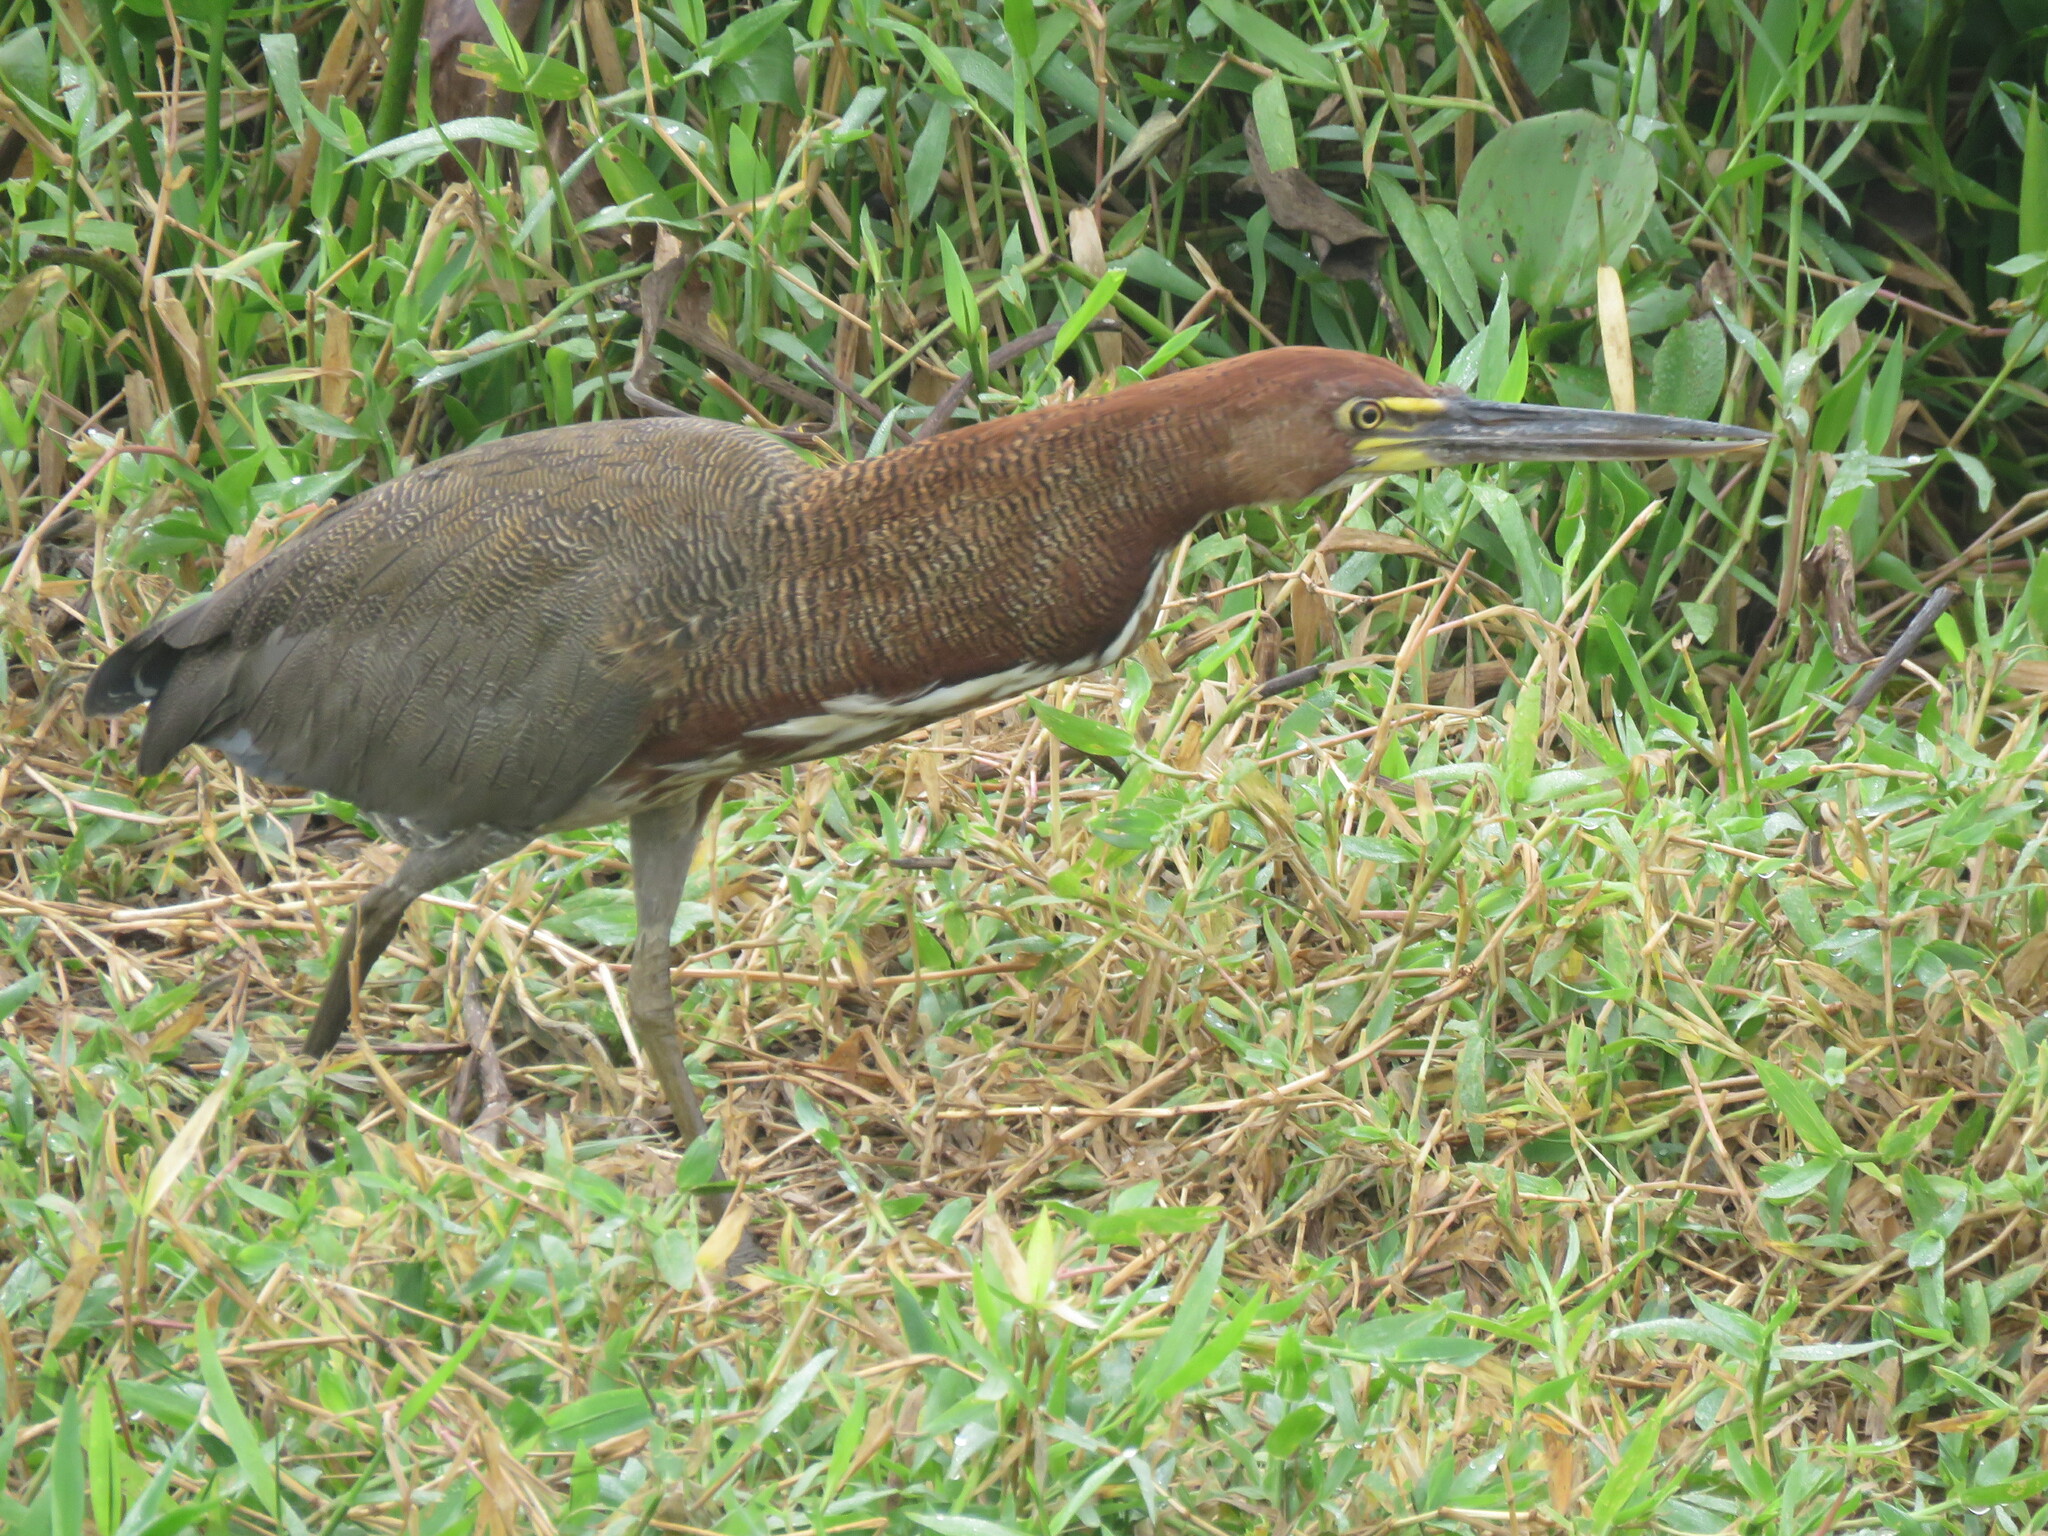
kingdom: Animalia
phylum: Chordata
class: Aves
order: Pelecaniformes
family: Ardeidae
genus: Tigrisoma
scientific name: Tigrisoma lineatum
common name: Rufescent tiger-heron
